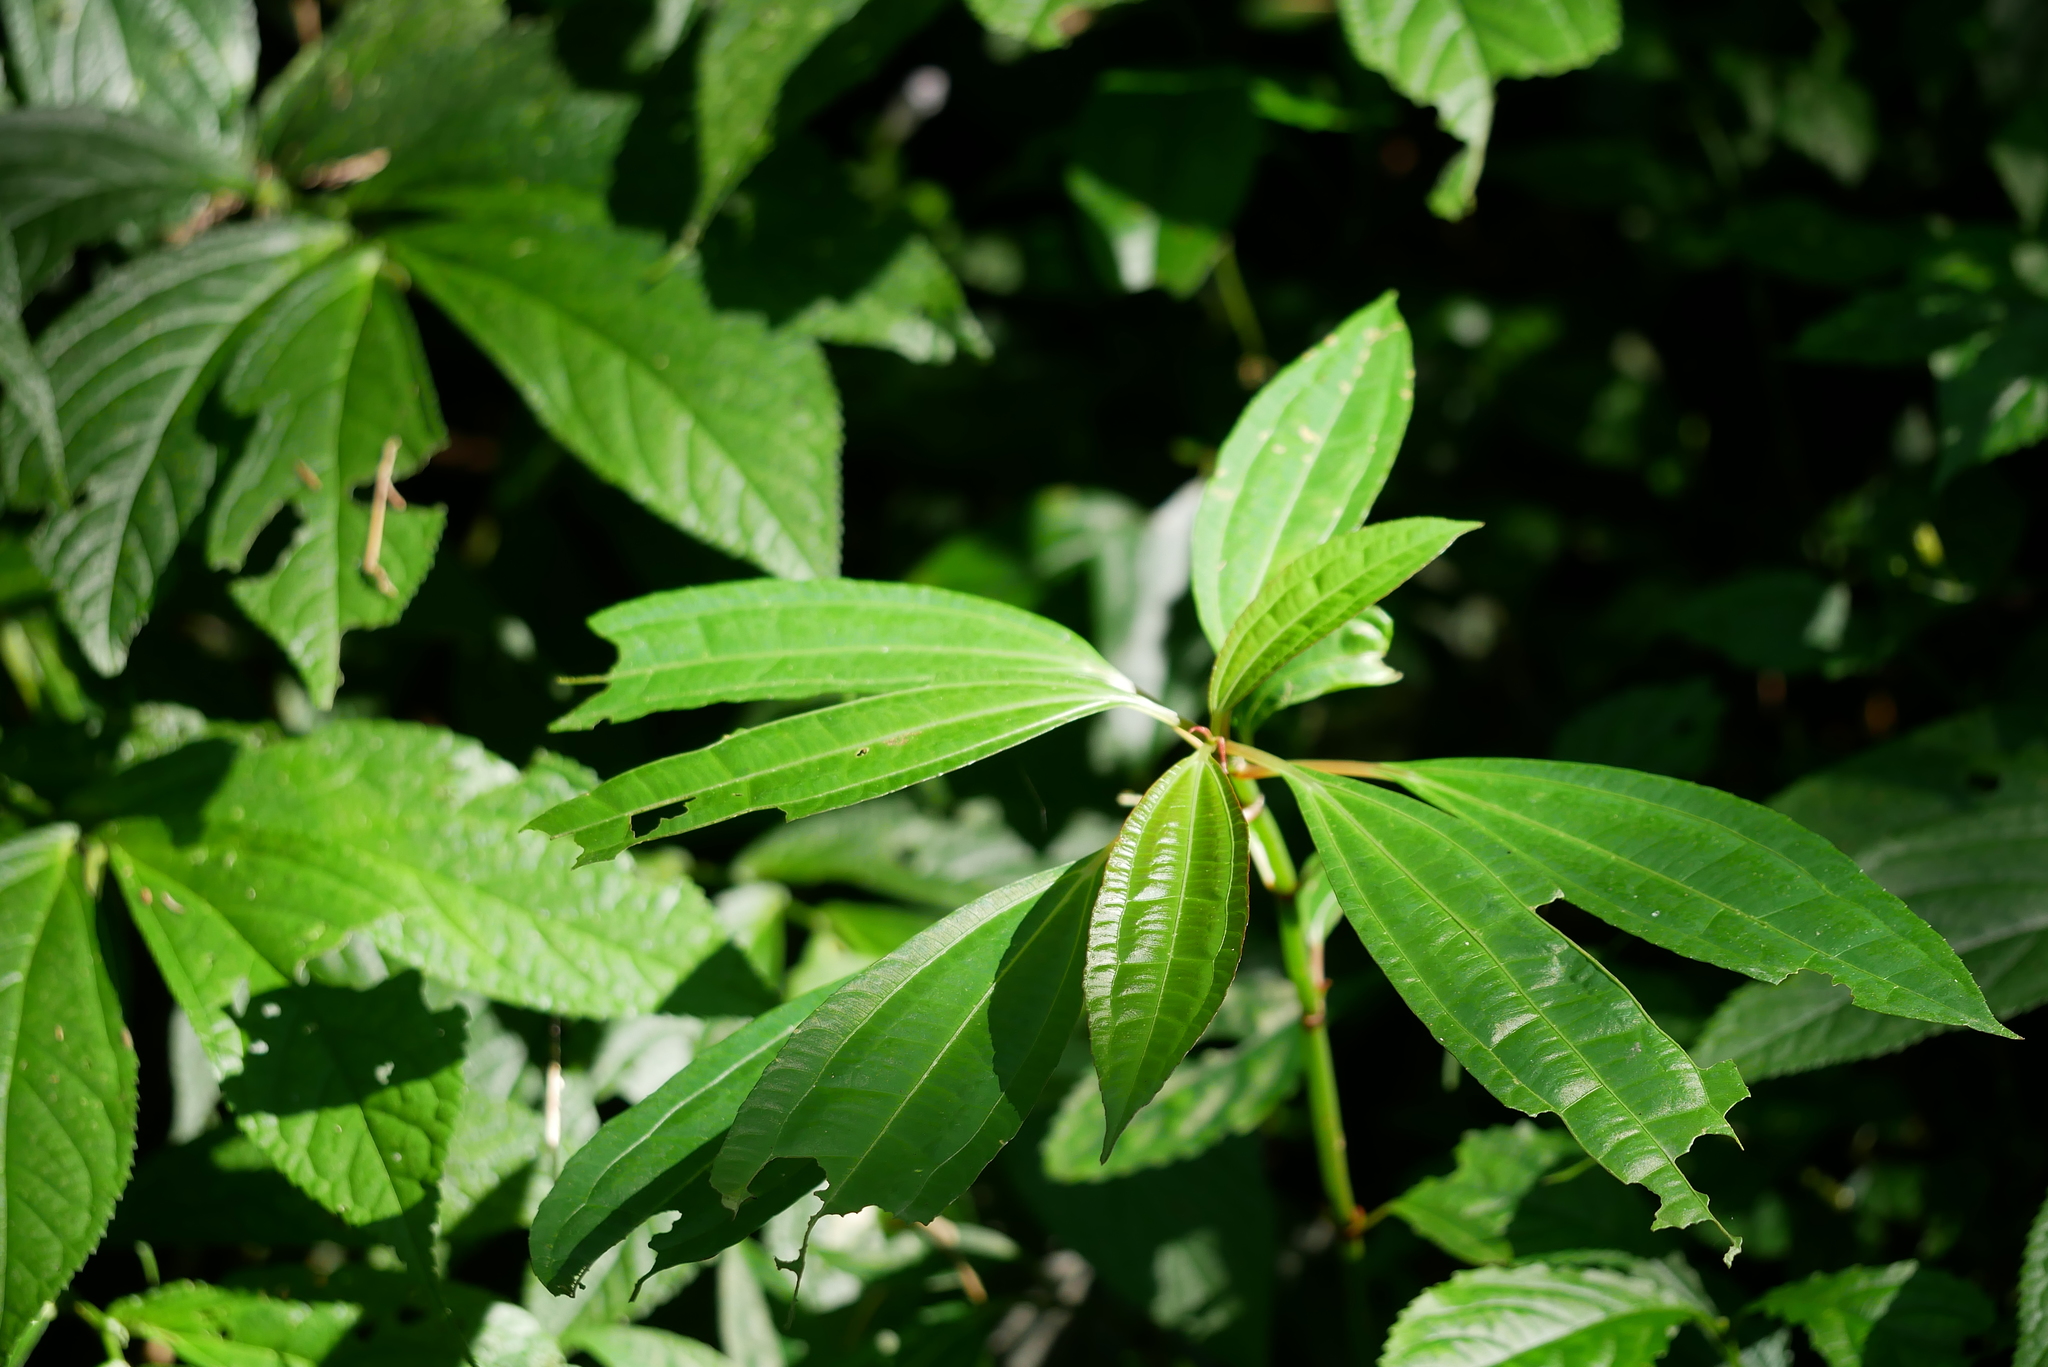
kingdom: Plantae
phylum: Tracheophyta
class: Magnoliopsida
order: Rosales
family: Urticaceae
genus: Pilea
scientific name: Pilea rotundinucula
